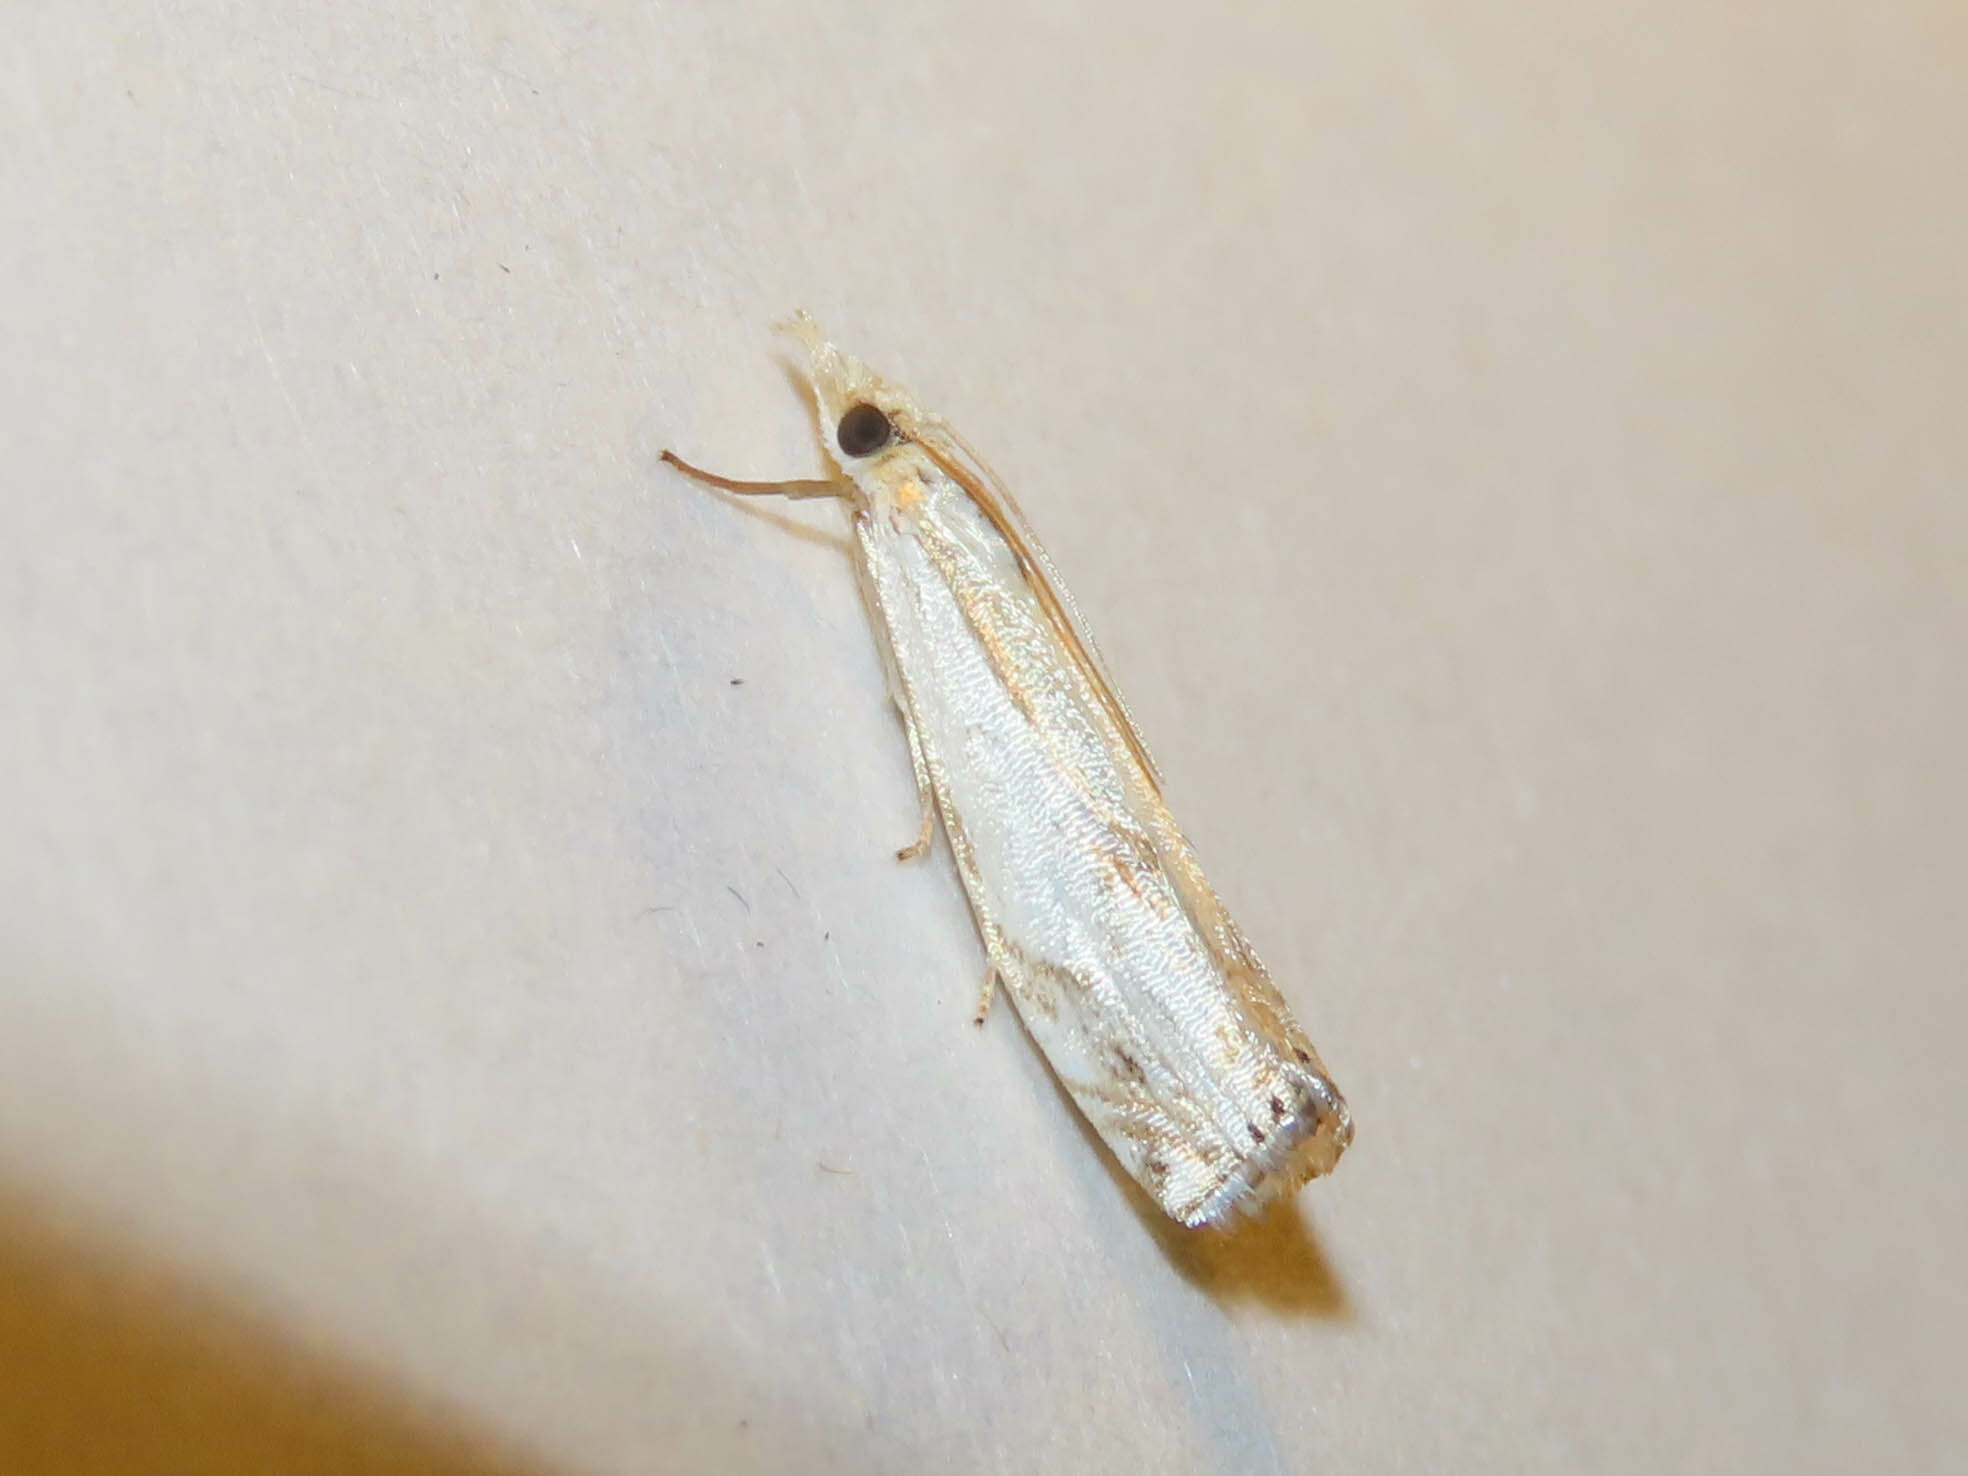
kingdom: Animalia
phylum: Arthropoda
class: Insecta
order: Lepidoptera
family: Crambidae
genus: Crambus
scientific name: Crambus agitatellus
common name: Double-banded grass-veneer
